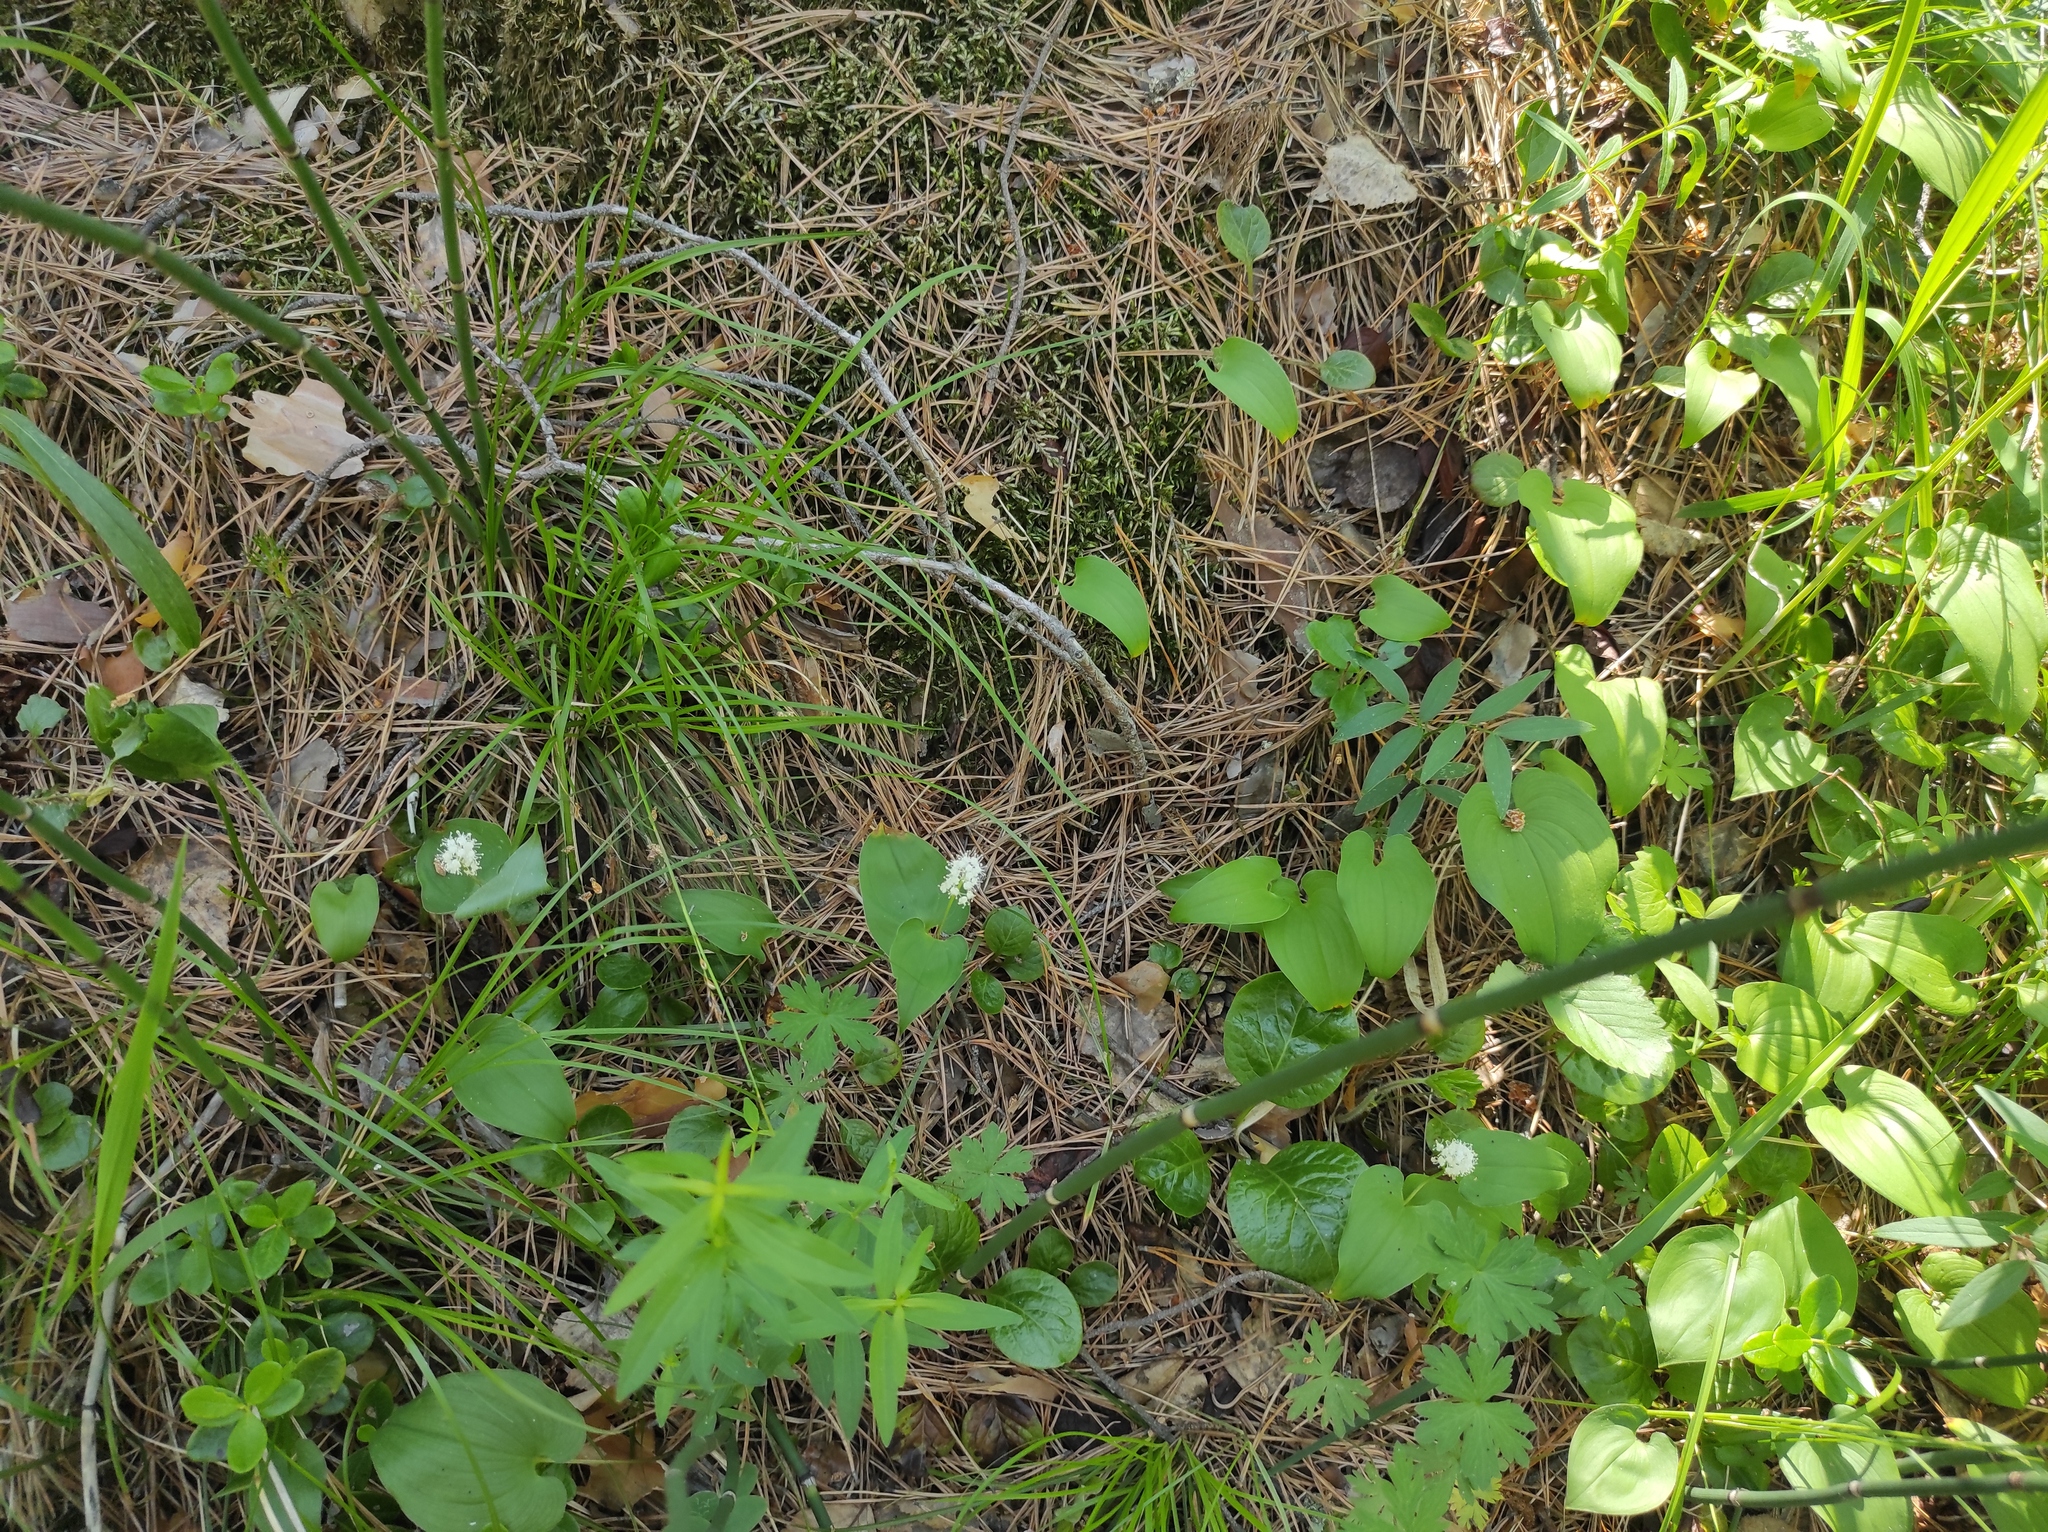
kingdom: Plantae
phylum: Tracheophyta
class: Liliopsida
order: Asparagales
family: Asparagaceae
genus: Maianthemum
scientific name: Maianthemum bifolium
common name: May lily
